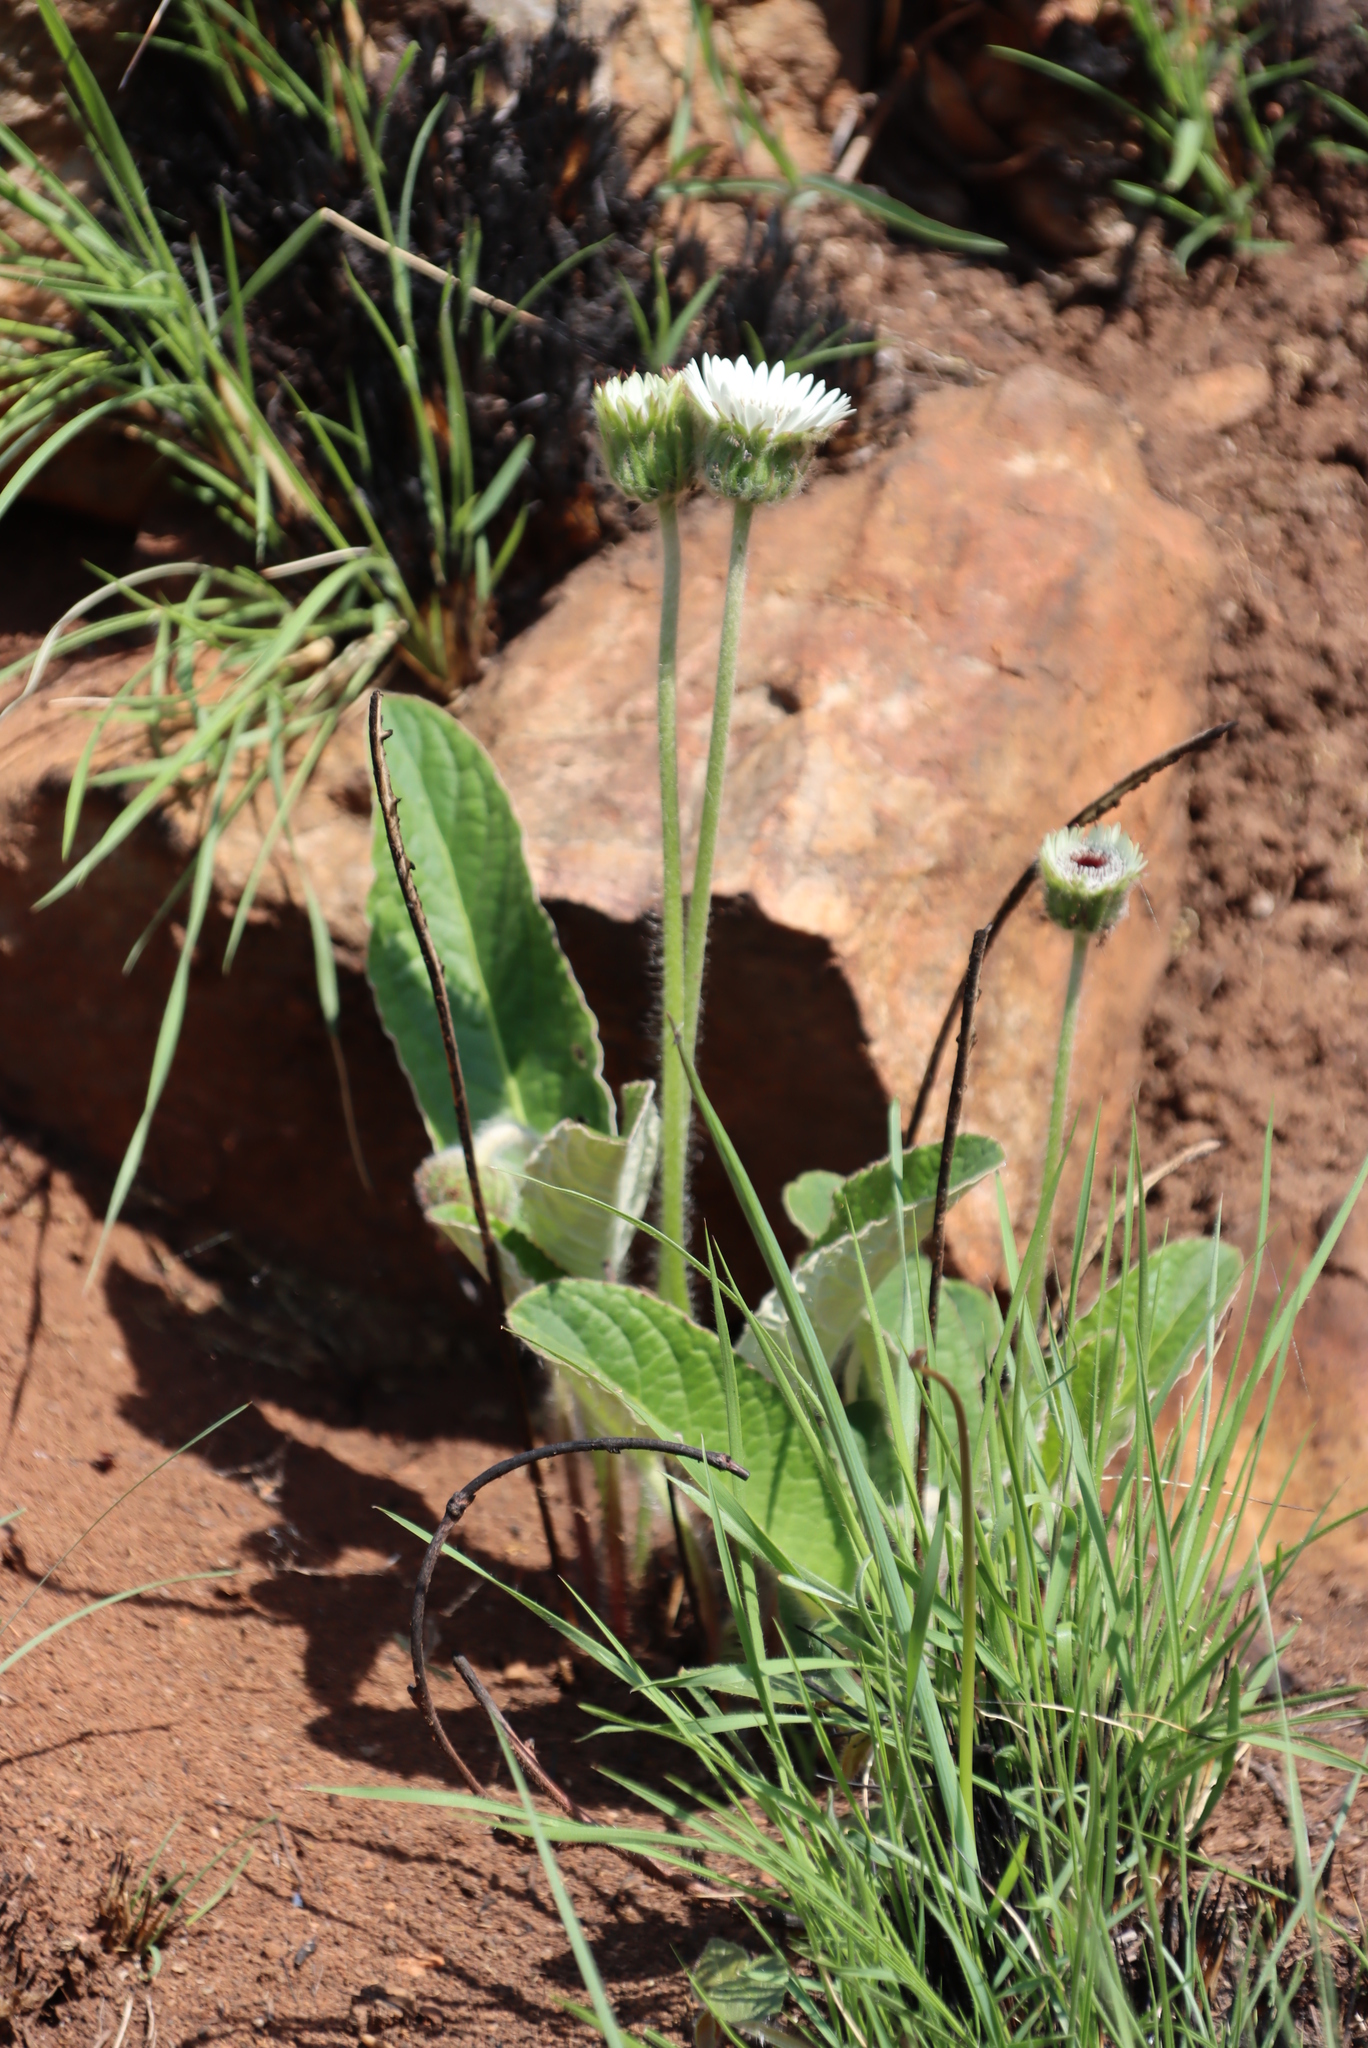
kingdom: Plantae
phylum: Tracheophyta
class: Magnoliopsida
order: Asterales
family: Asteraceae
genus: Gerbera
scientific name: Gerbera ambigua
